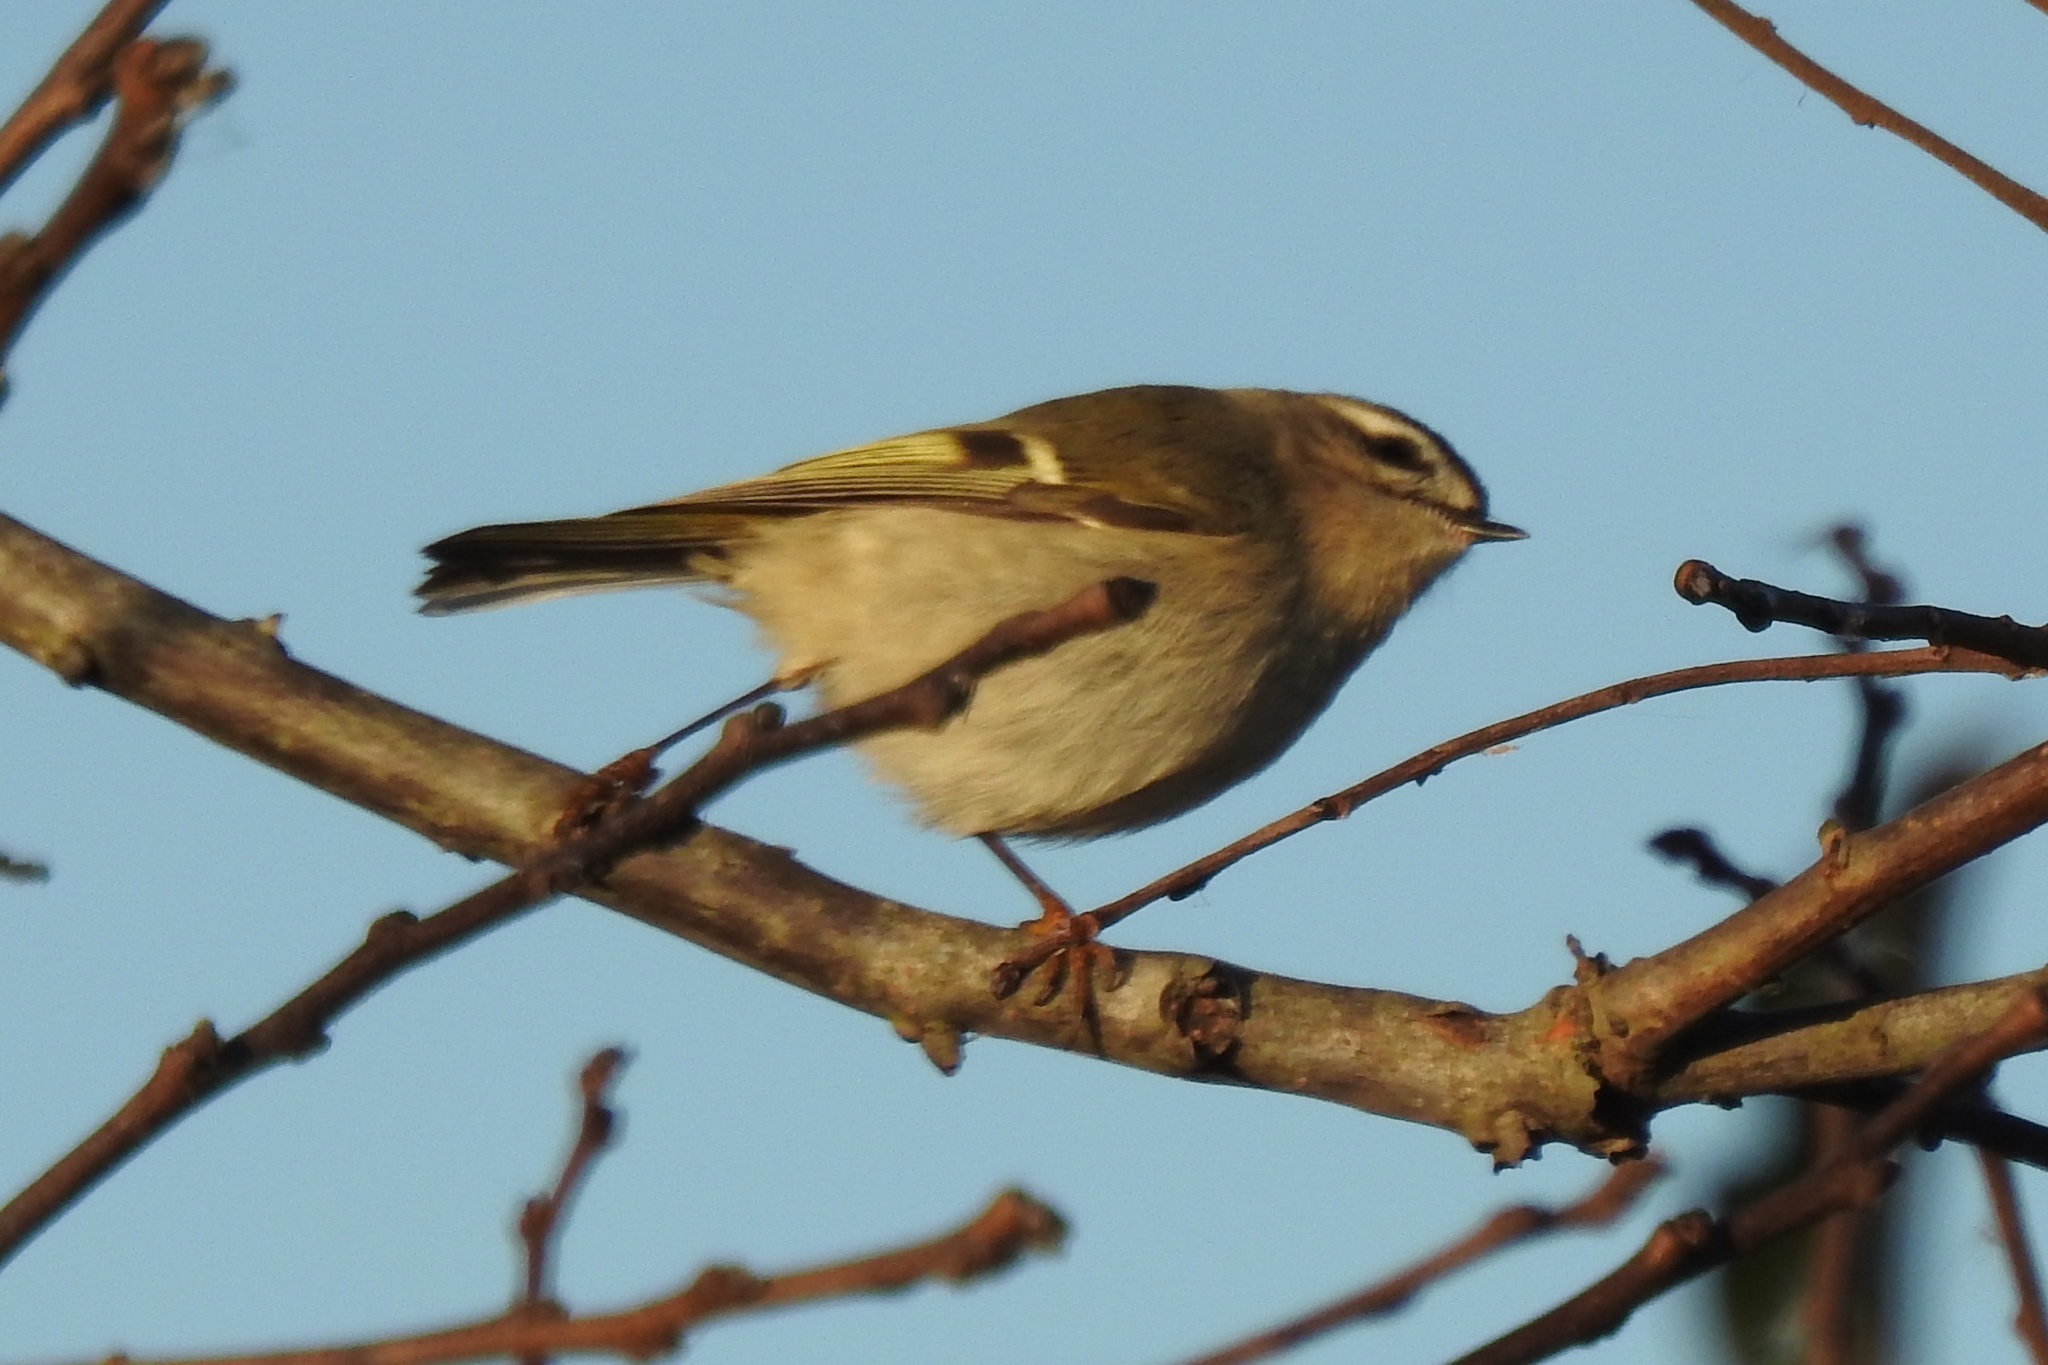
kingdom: Animalia
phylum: Chordata
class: Aves
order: Passeriformes
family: Regulidae
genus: Regulus
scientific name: Regulus satrapa
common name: Golden-crowned kinglet
